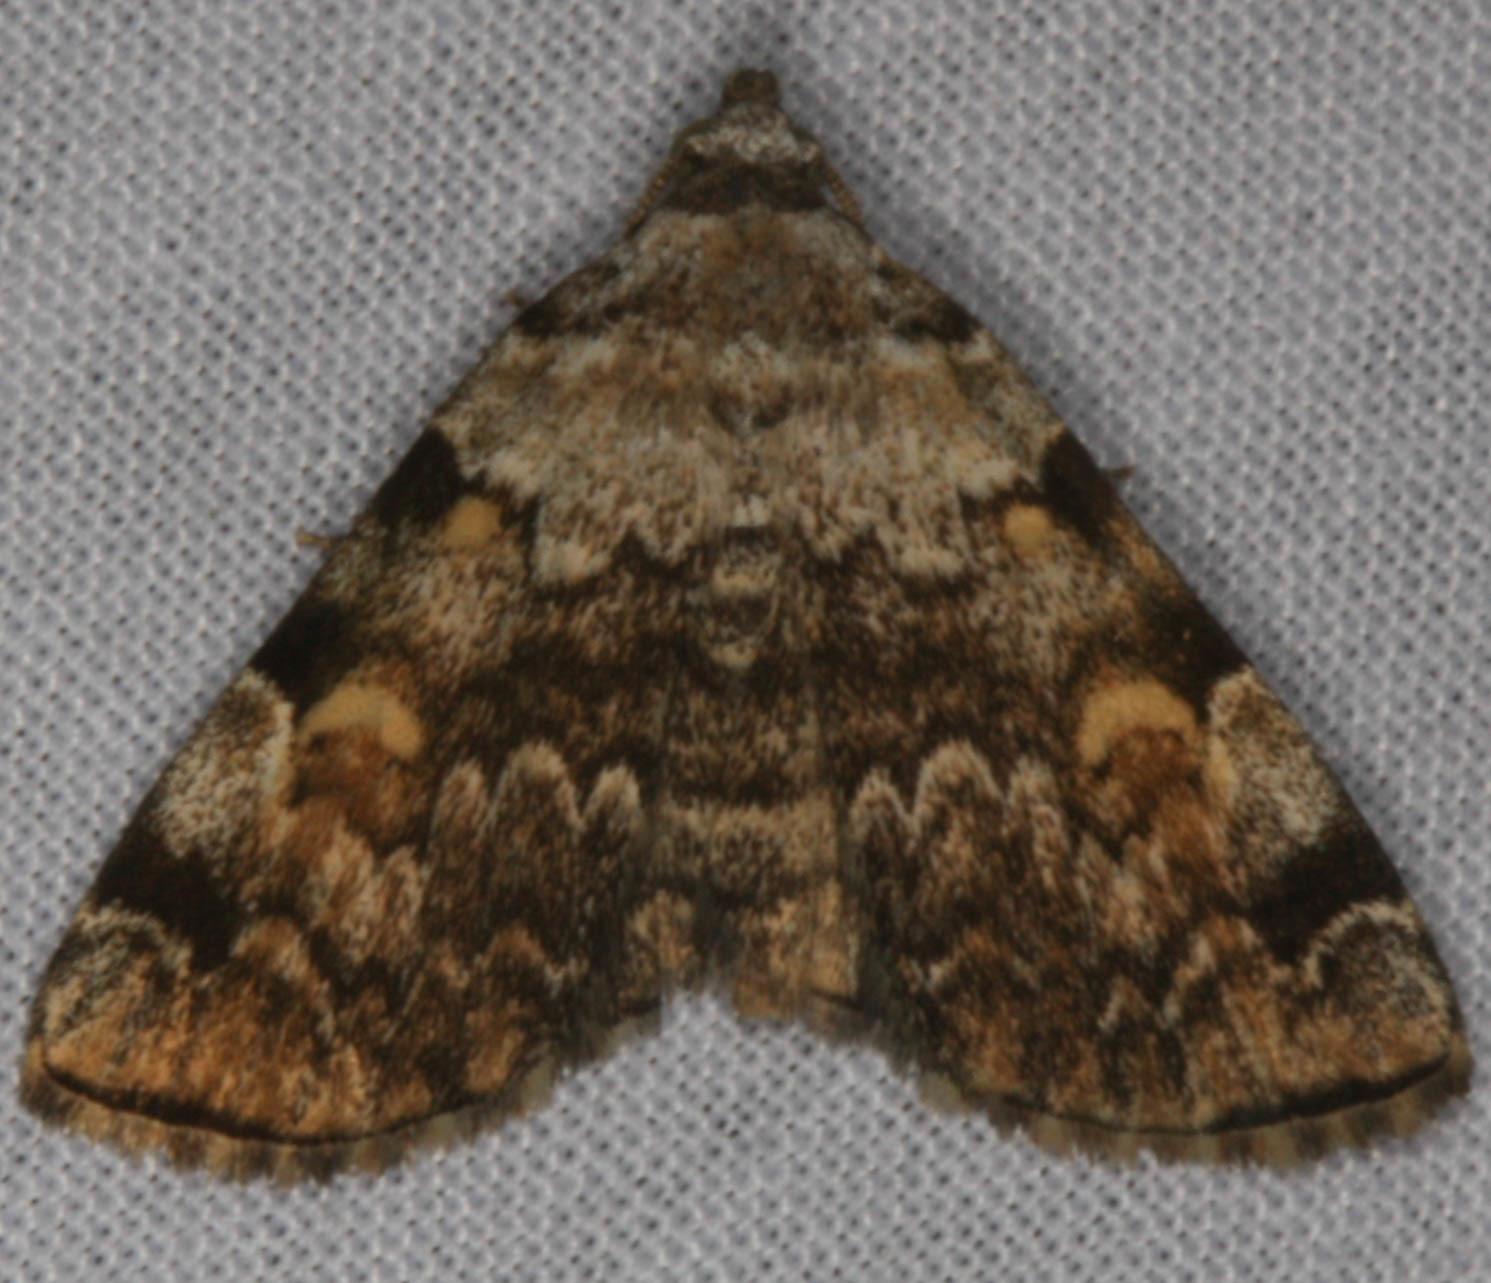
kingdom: Animalia
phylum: Arthropoda
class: Insecta
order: Lepidoptera
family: Erebidae
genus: Idia
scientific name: Idia americalis
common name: American idia moth
